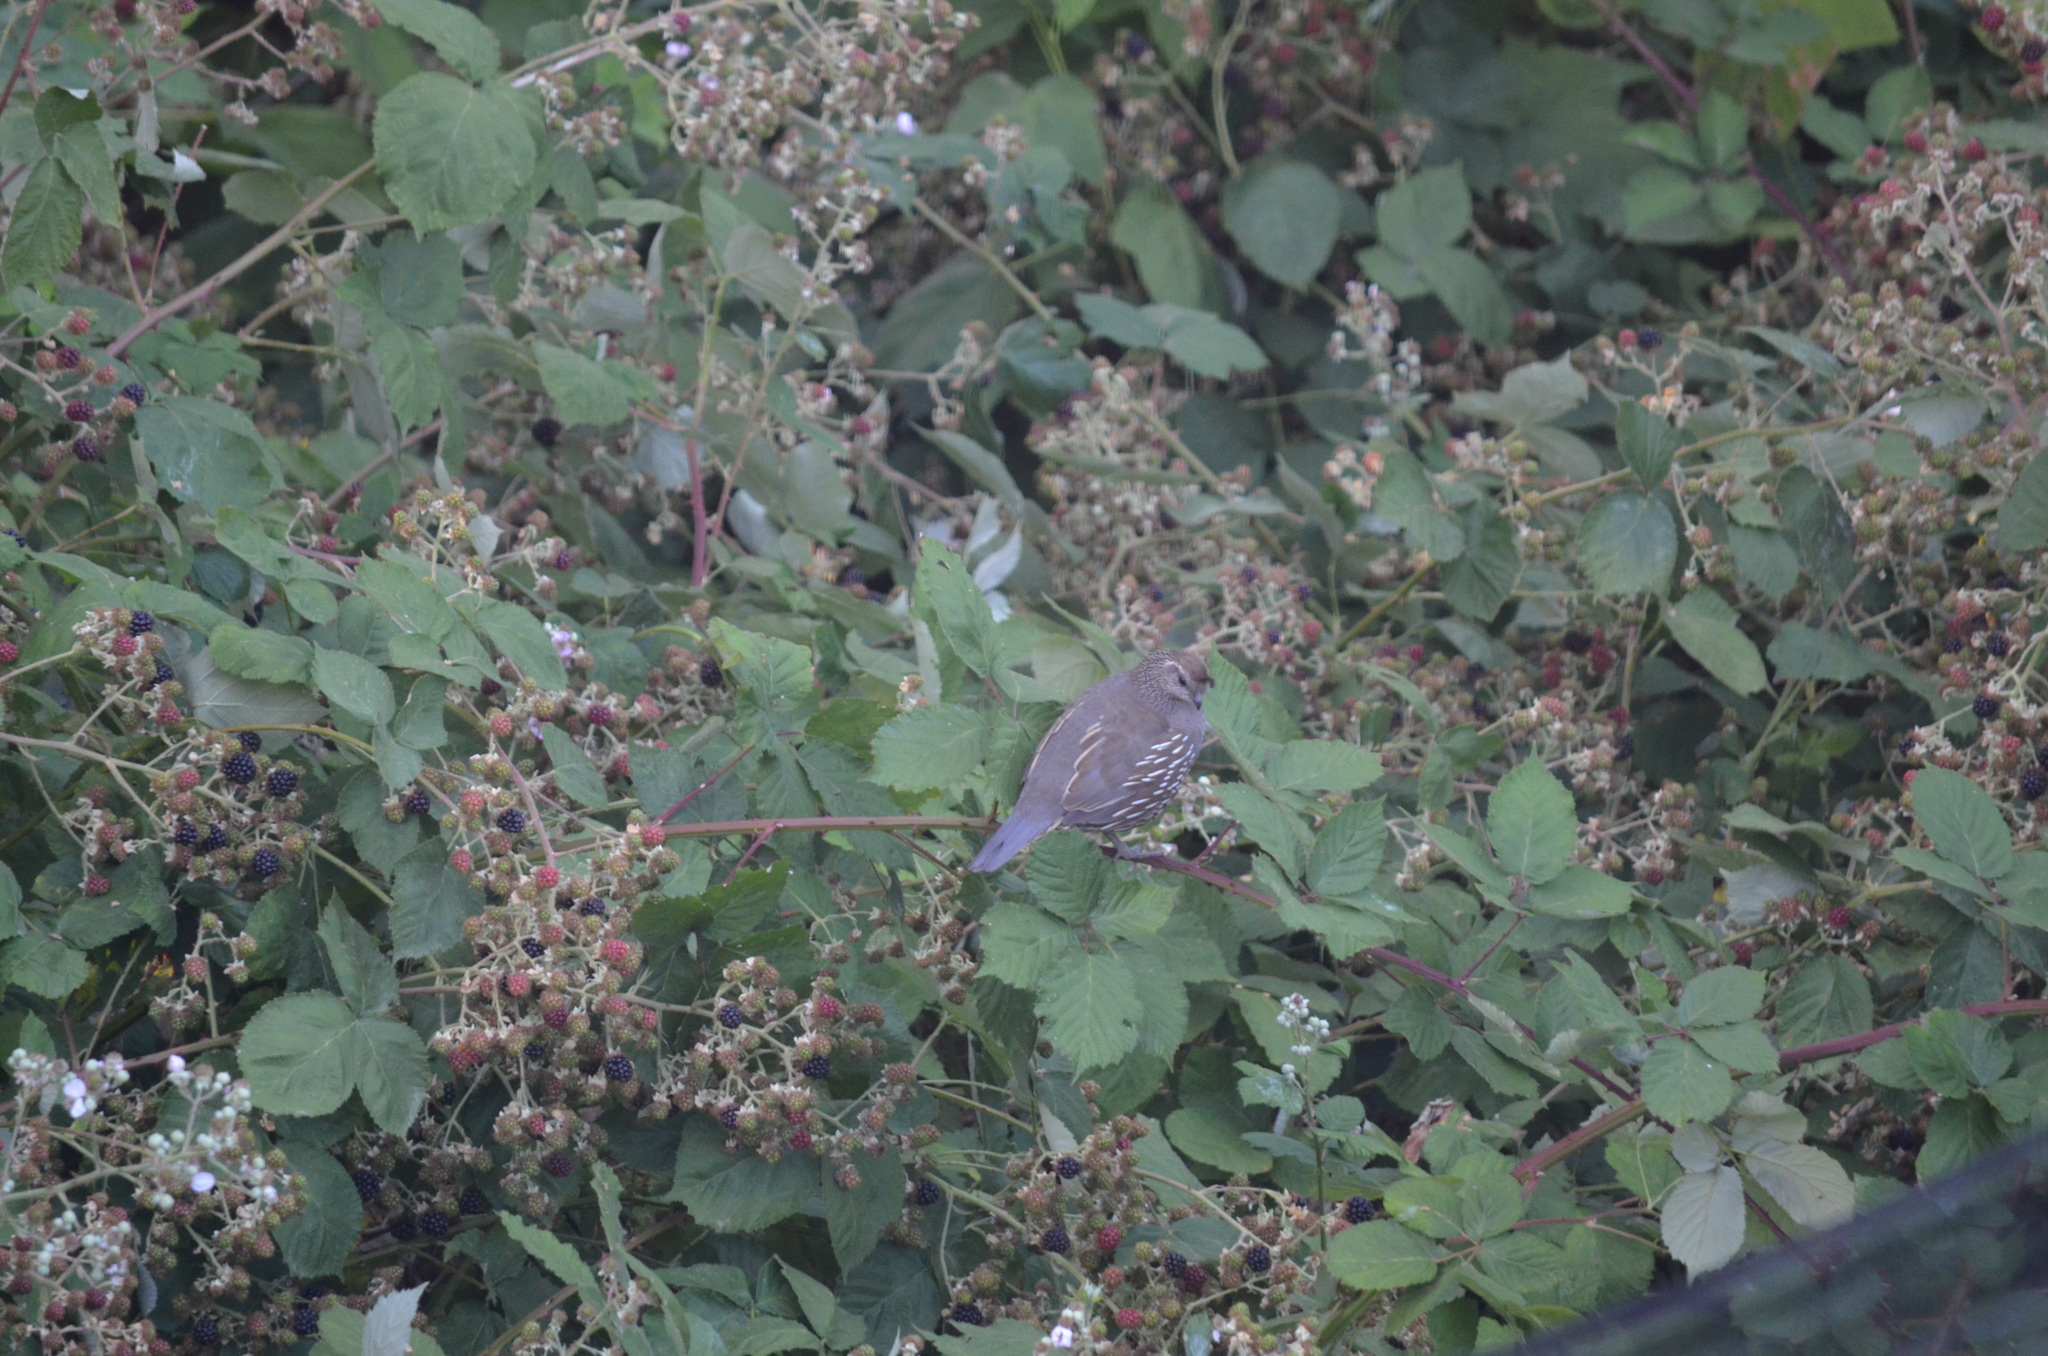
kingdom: Animalia
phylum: Chordata
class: Aves
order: Galliformes
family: Odontophoridae
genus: Callipepla
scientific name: Callipepla californica
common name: California quail
